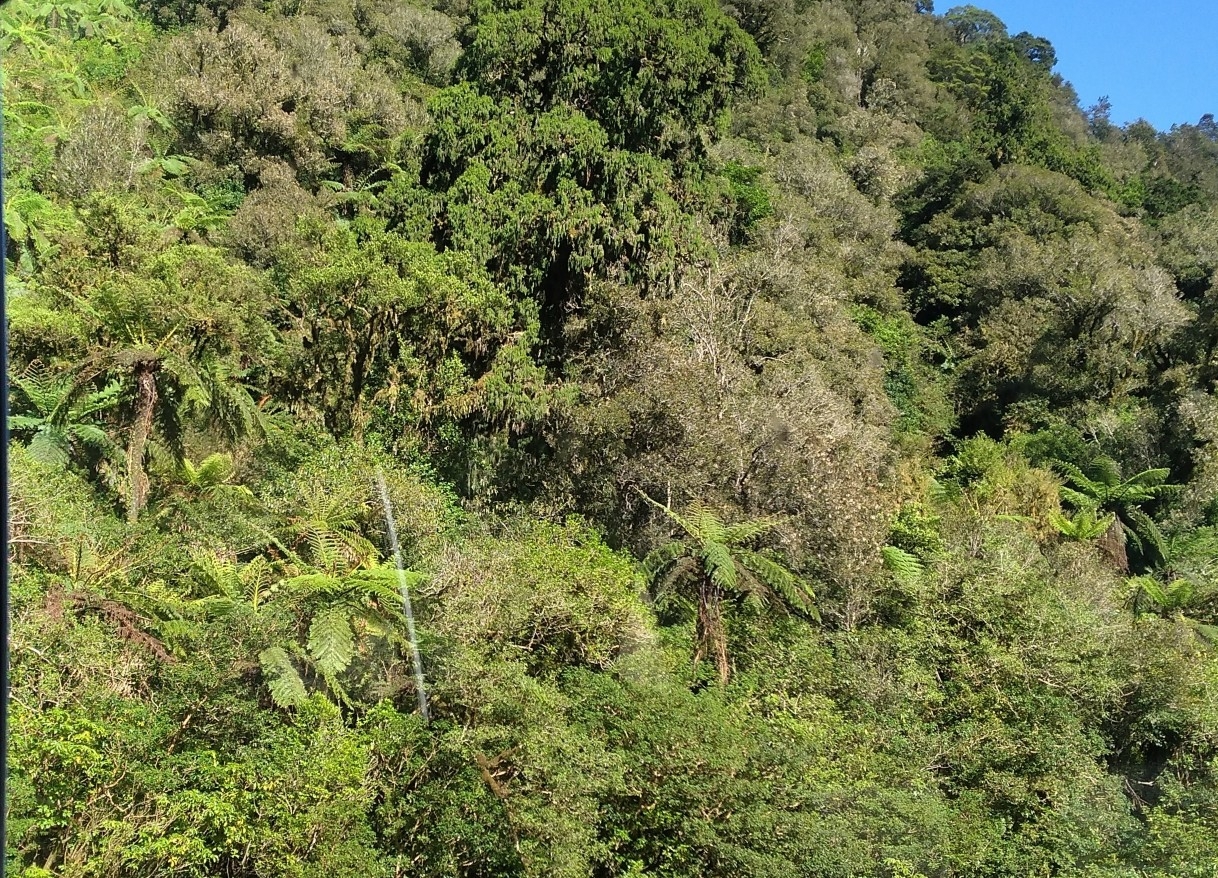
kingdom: Plantae
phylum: Tracheophyta
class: Polypodiopsida
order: Cyatheales
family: Cyatheaceae
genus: Sphaeropteris
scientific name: Sphaeropteris medullaris
